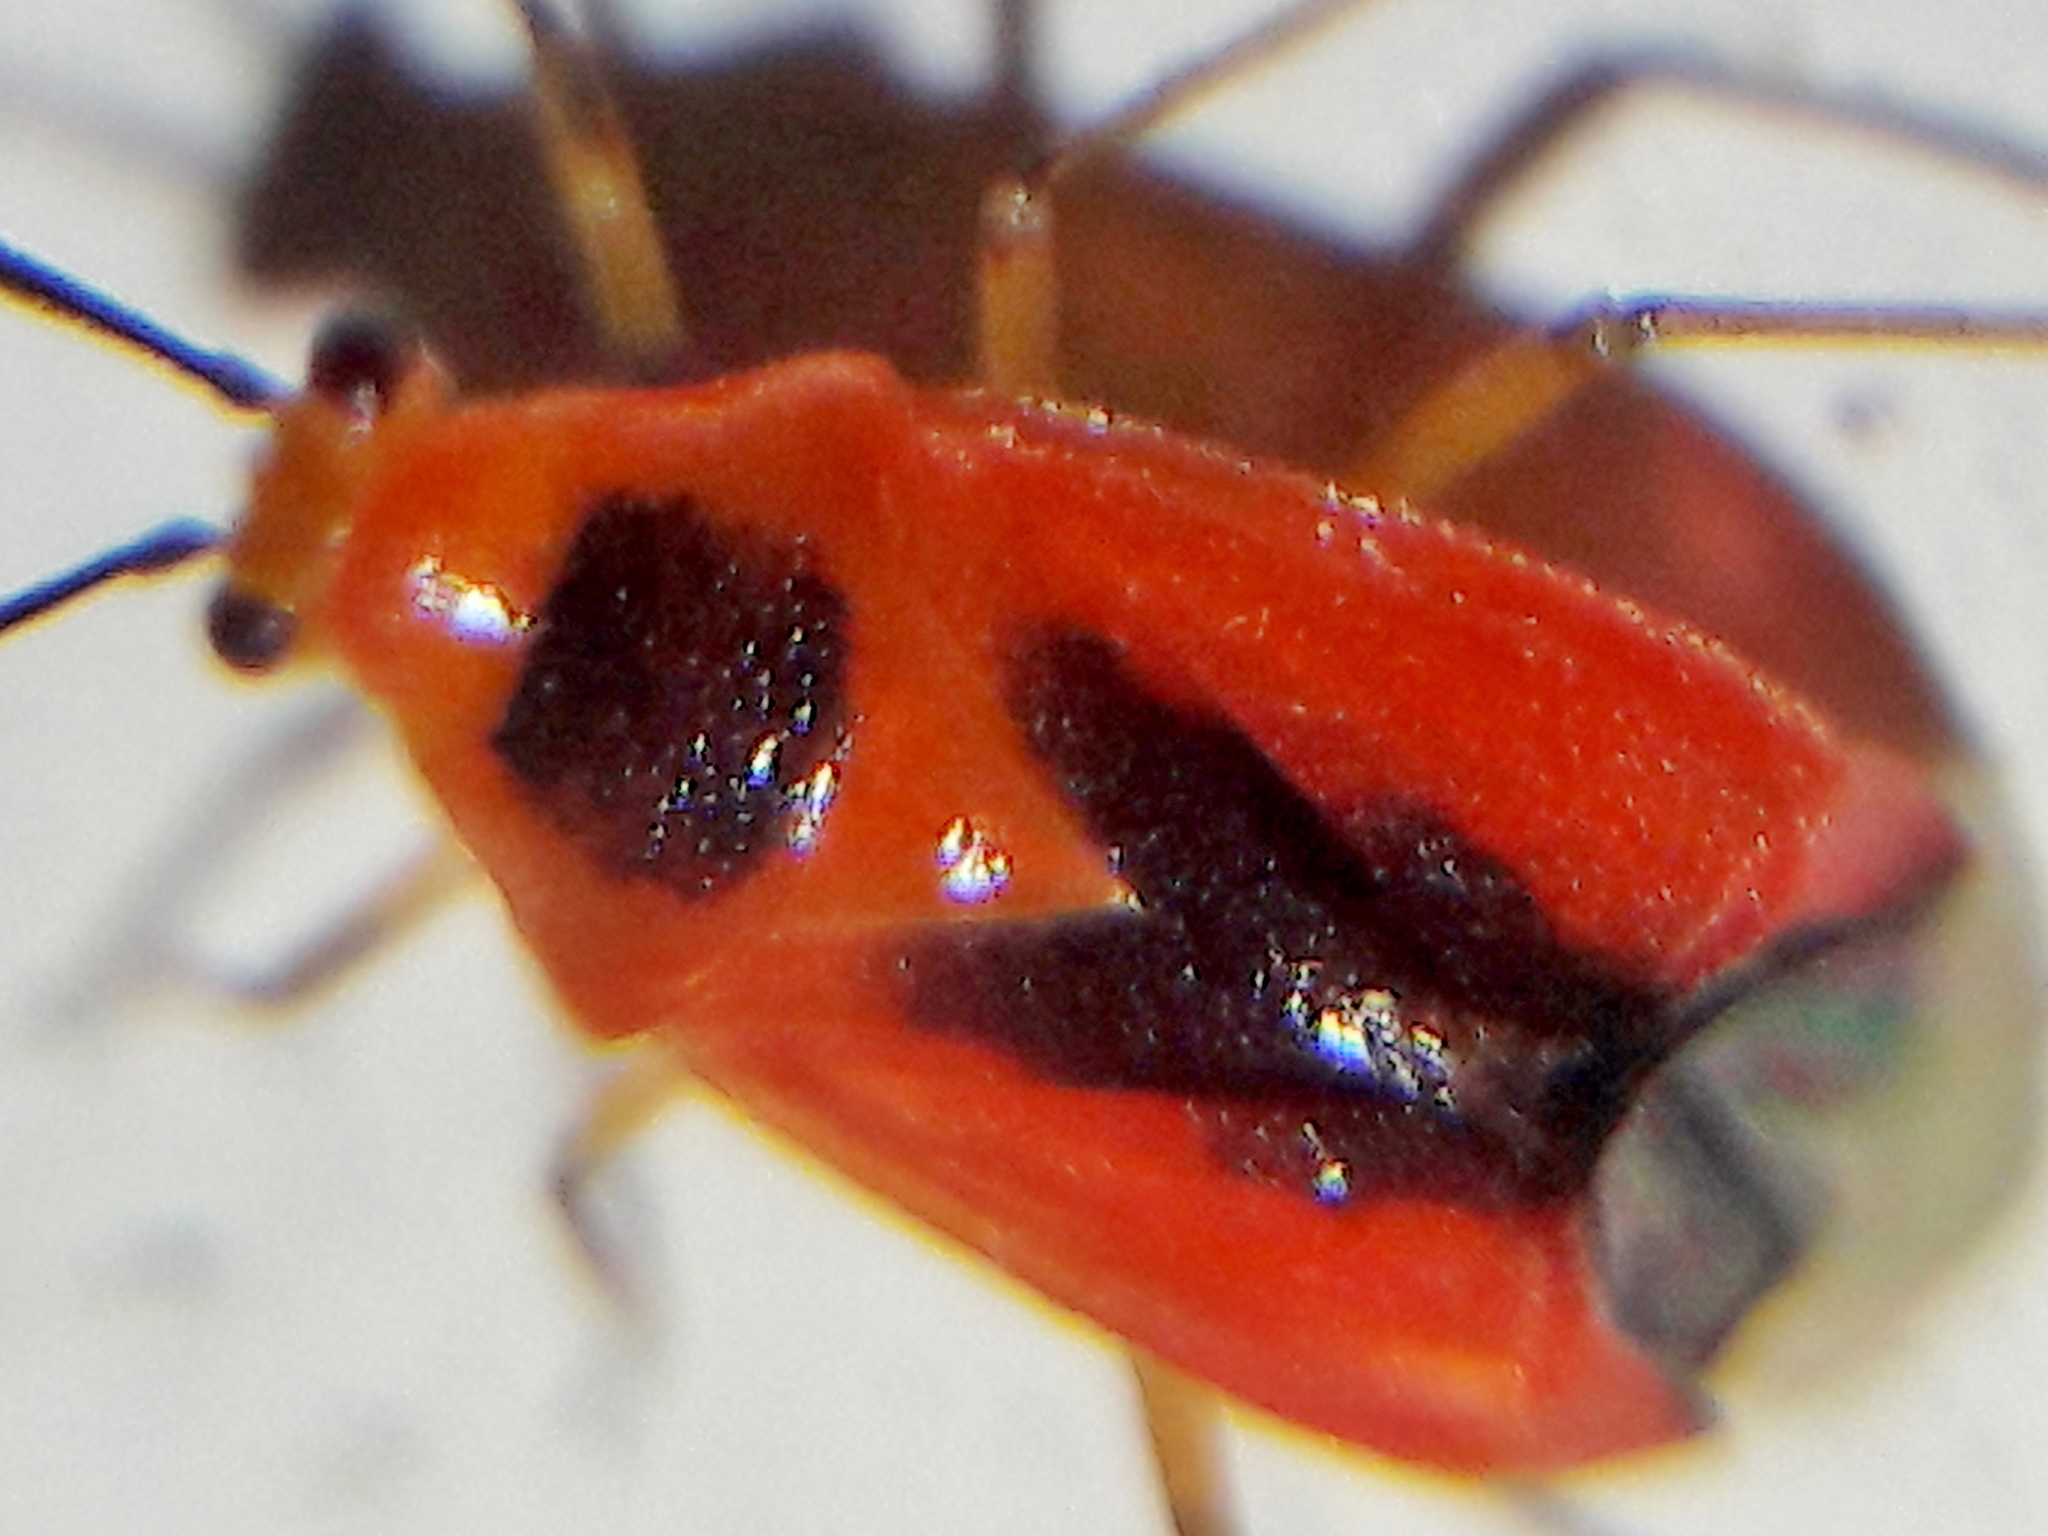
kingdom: Animalia
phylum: Arthropoda
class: Insecta
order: Hemiptera
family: Miridae
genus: Ambracius
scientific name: Ambracius dufouri
